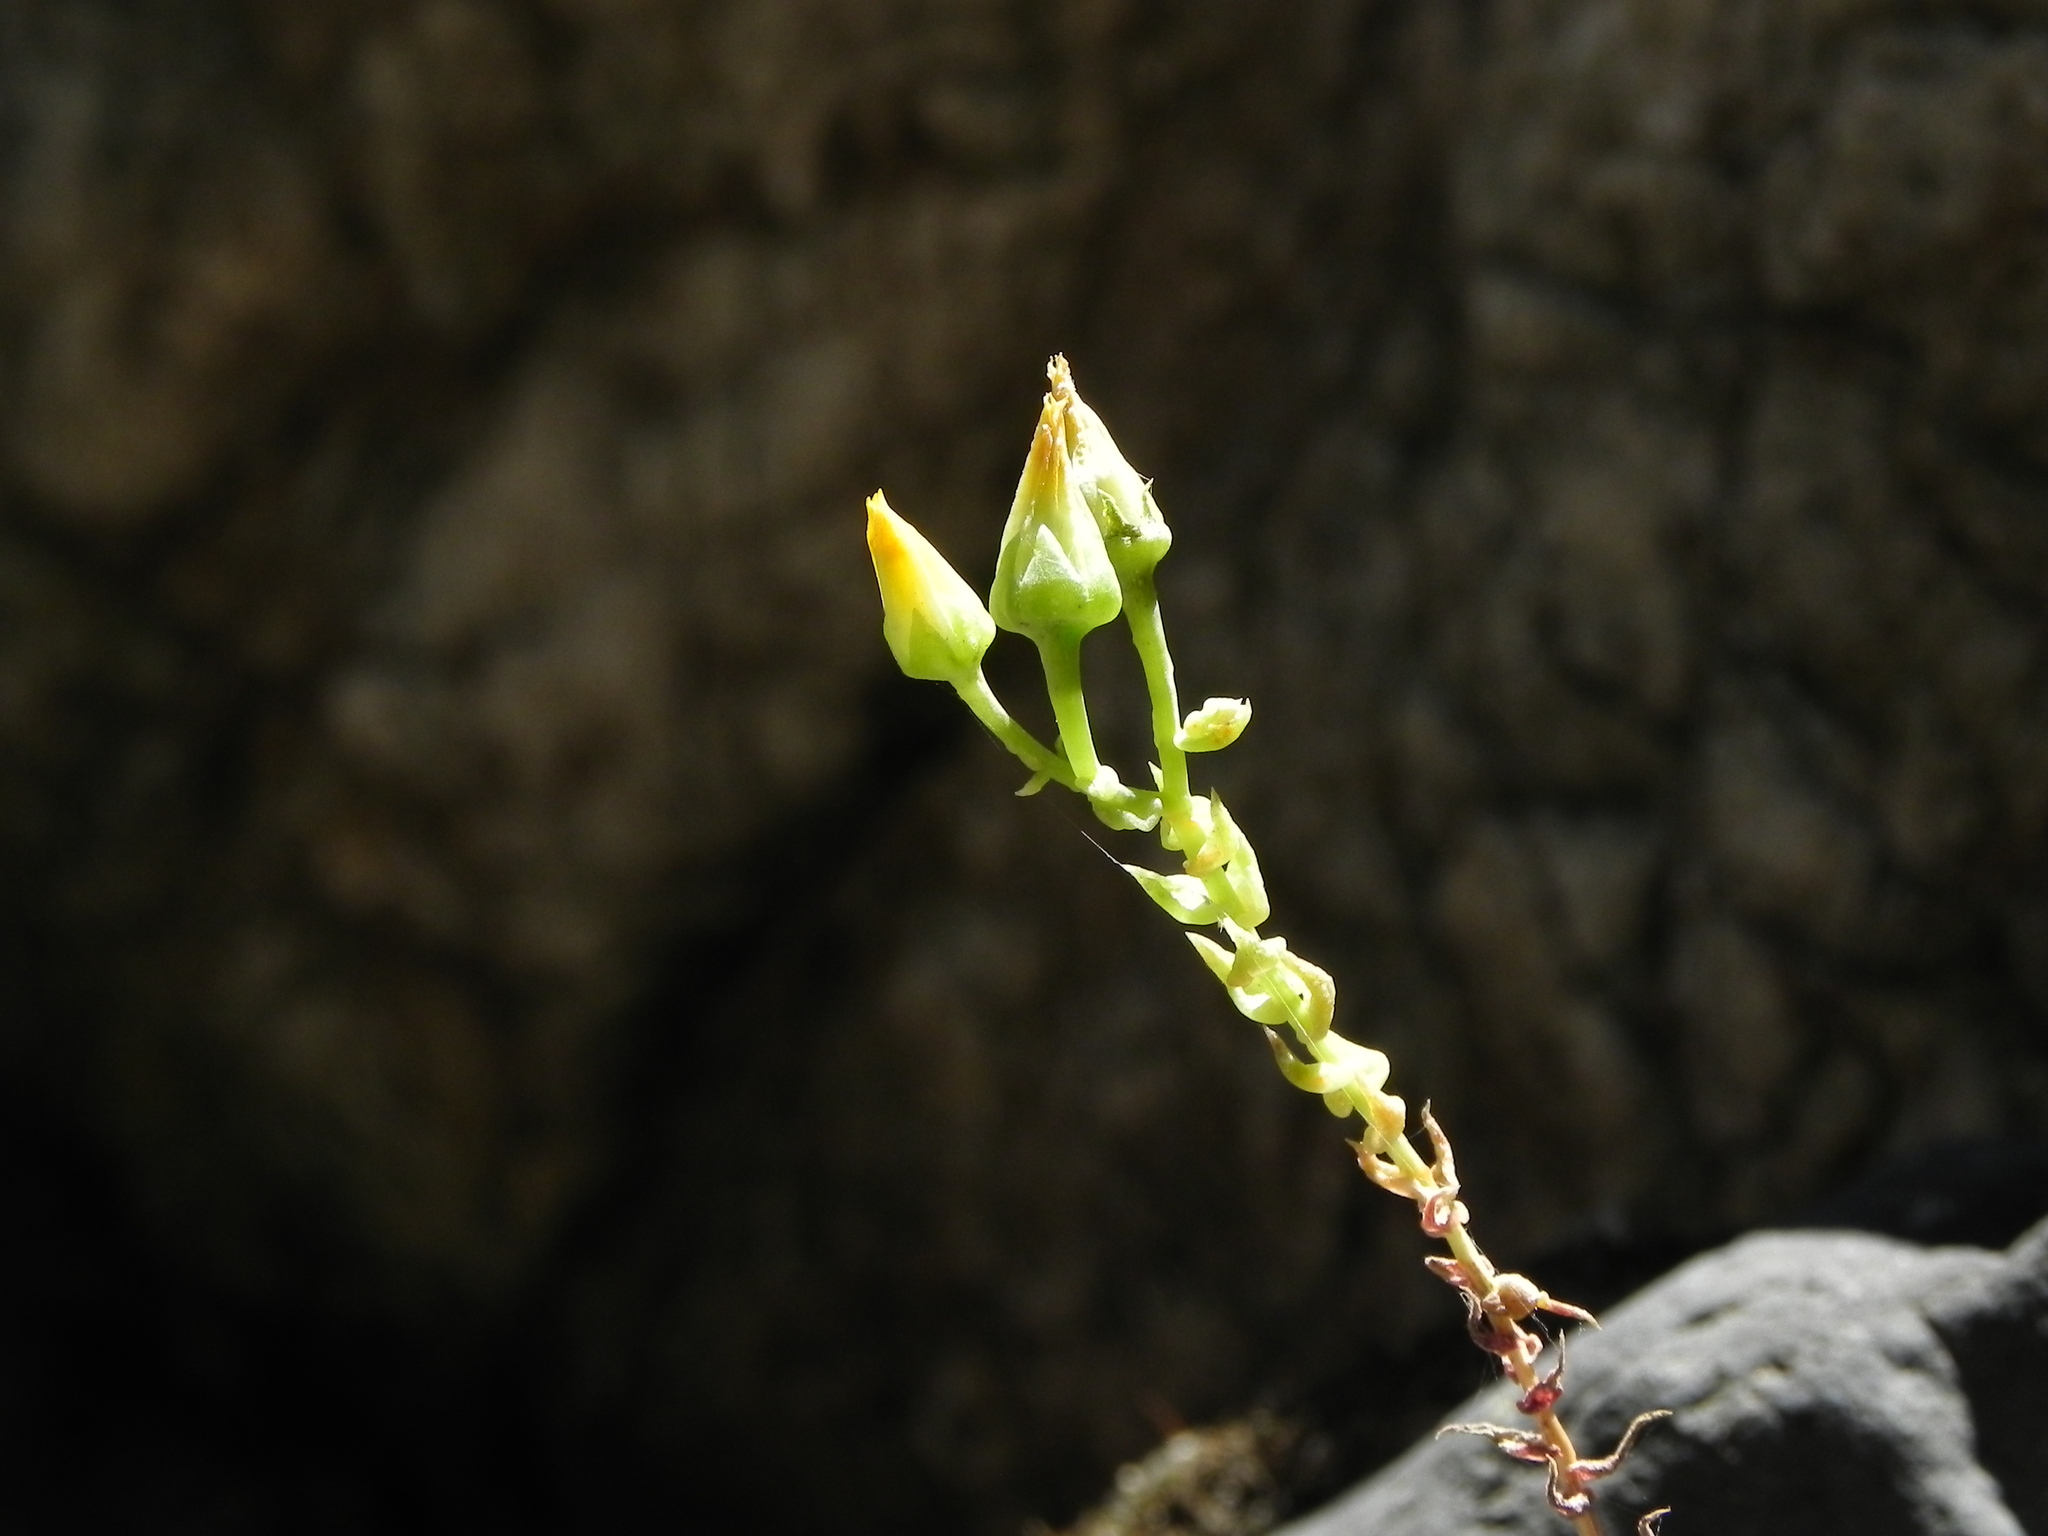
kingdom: Plantae
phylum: Tracheophyta
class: Magnoliopsida
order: Saxifragales
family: Crassulaceae
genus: Dudleya
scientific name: Dudleya cymosa
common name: Canyon dudleya
